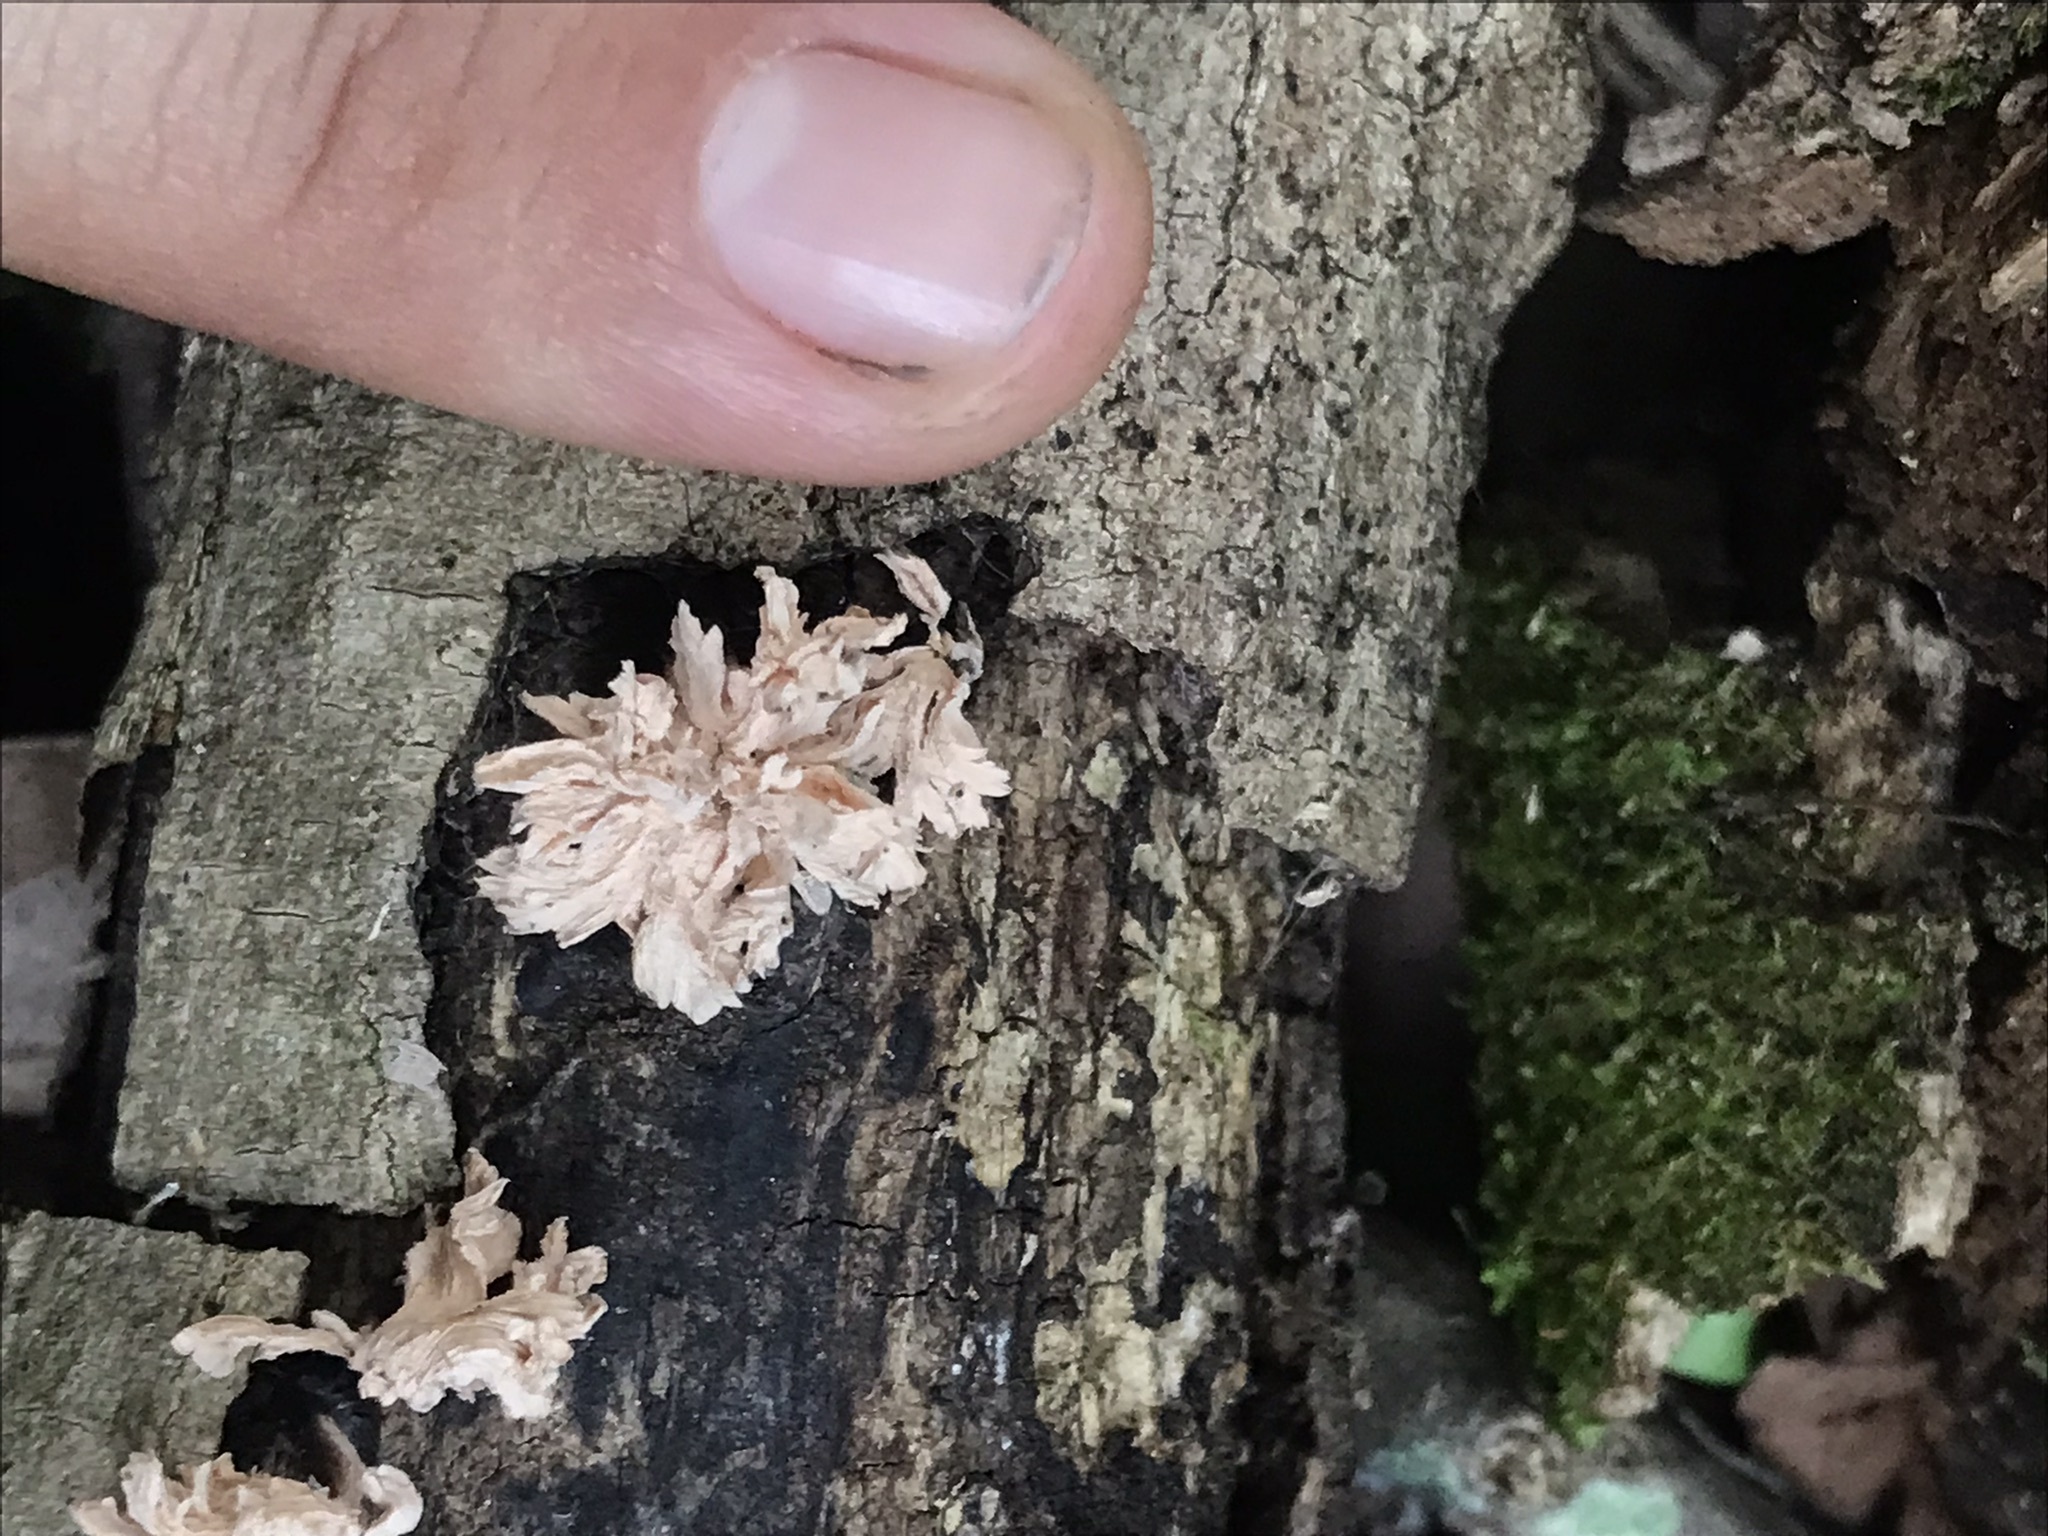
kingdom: Fungi
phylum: Ascomycota
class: Sordariomycetes
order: Xylariales
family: Xylariaceae
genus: Xylaria
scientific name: Xylaria cubensis
